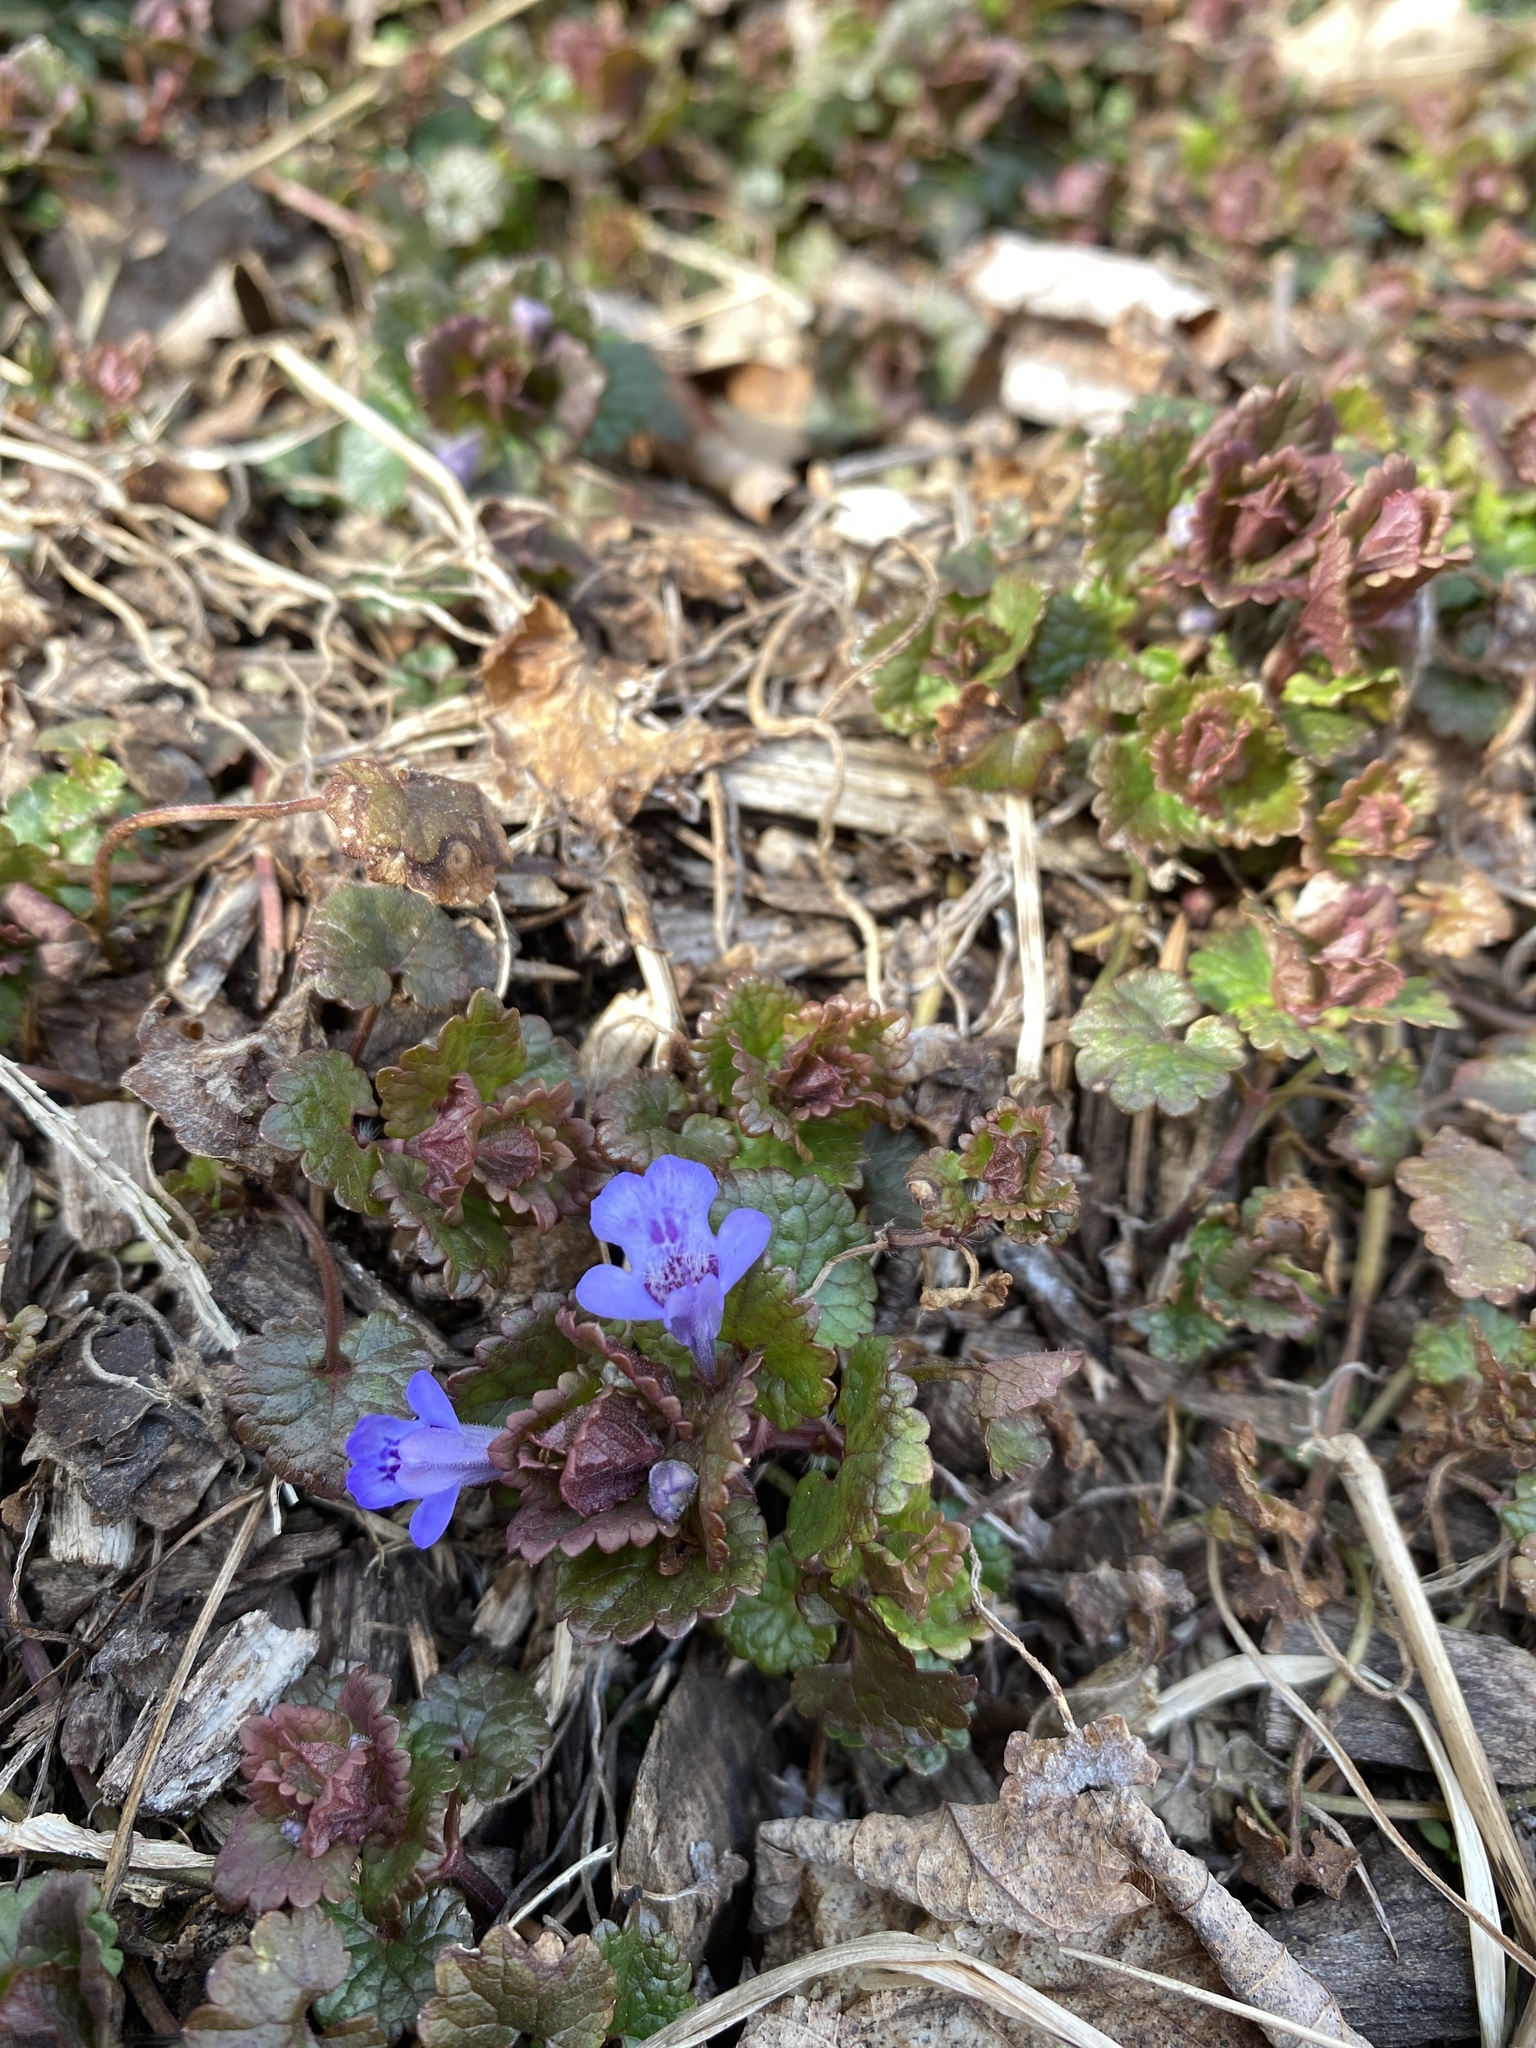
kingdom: Plantae
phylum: Tracheophyta
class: Magnoliopsida
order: Lamiales
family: Lamiaceae
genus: Glechoma
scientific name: Glechoma hederacea
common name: Ground ivy
